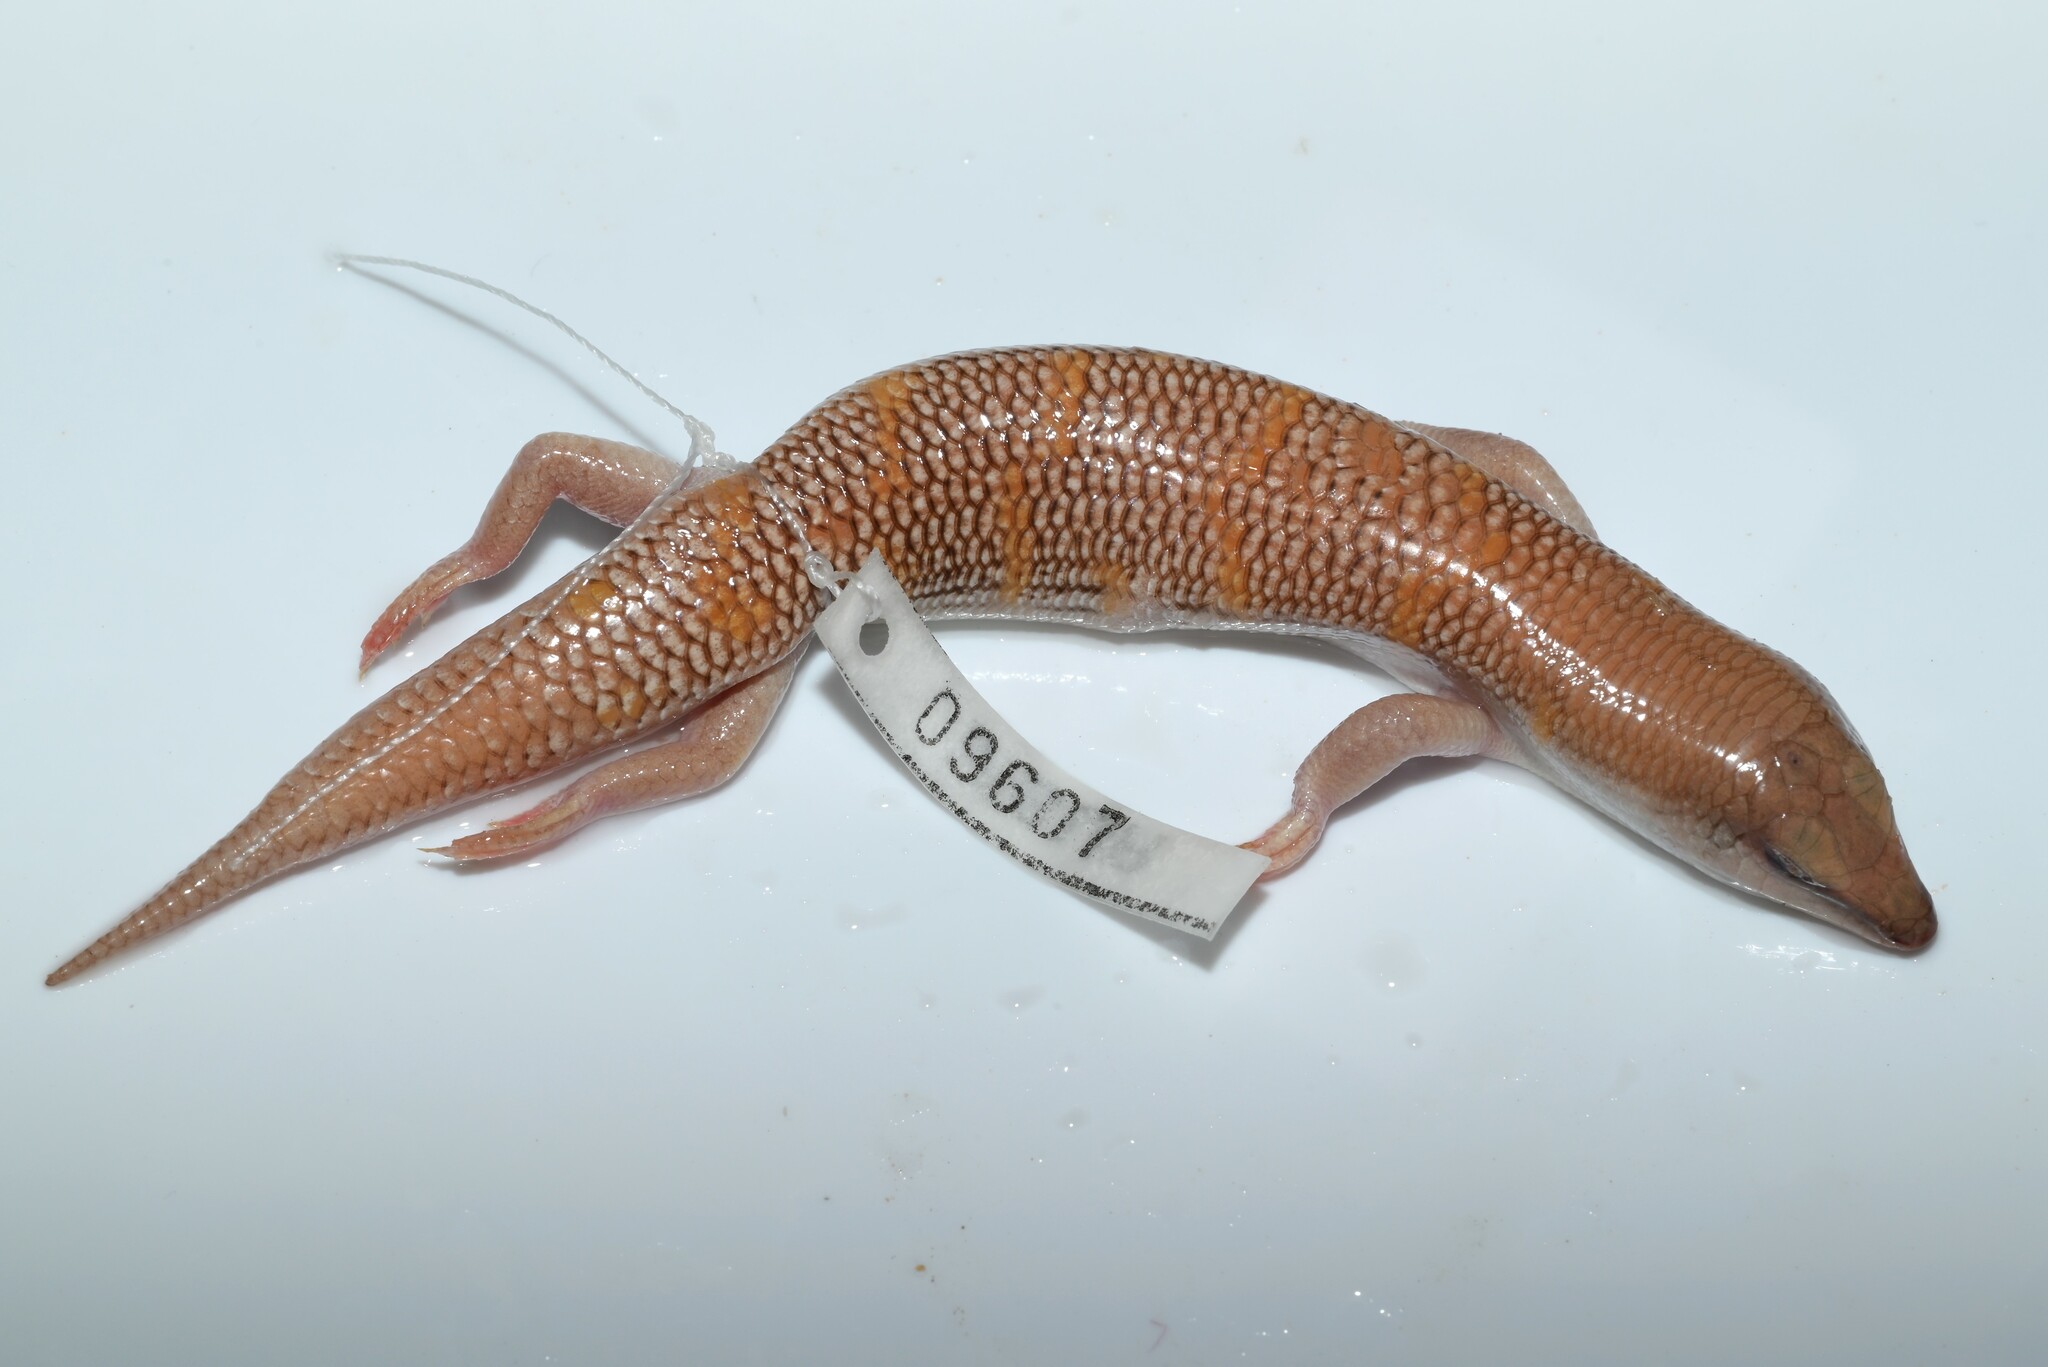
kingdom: Animalia
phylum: Chordata
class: Squamata
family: Scincidae
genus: Scincus
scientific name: Scincus conirostris
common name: Sandfish skink
